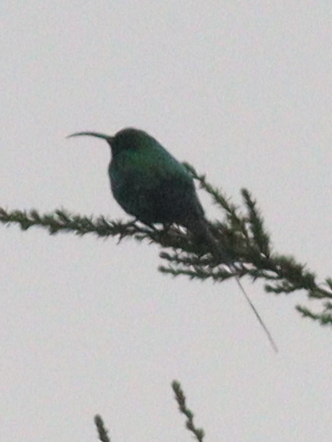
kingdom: Animalia
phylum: Chordata
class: Aves
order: Passeriformes
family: Nectariniidae
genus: Nectarinia
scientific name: Nectarinia famosa
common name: Malachite sunbird
